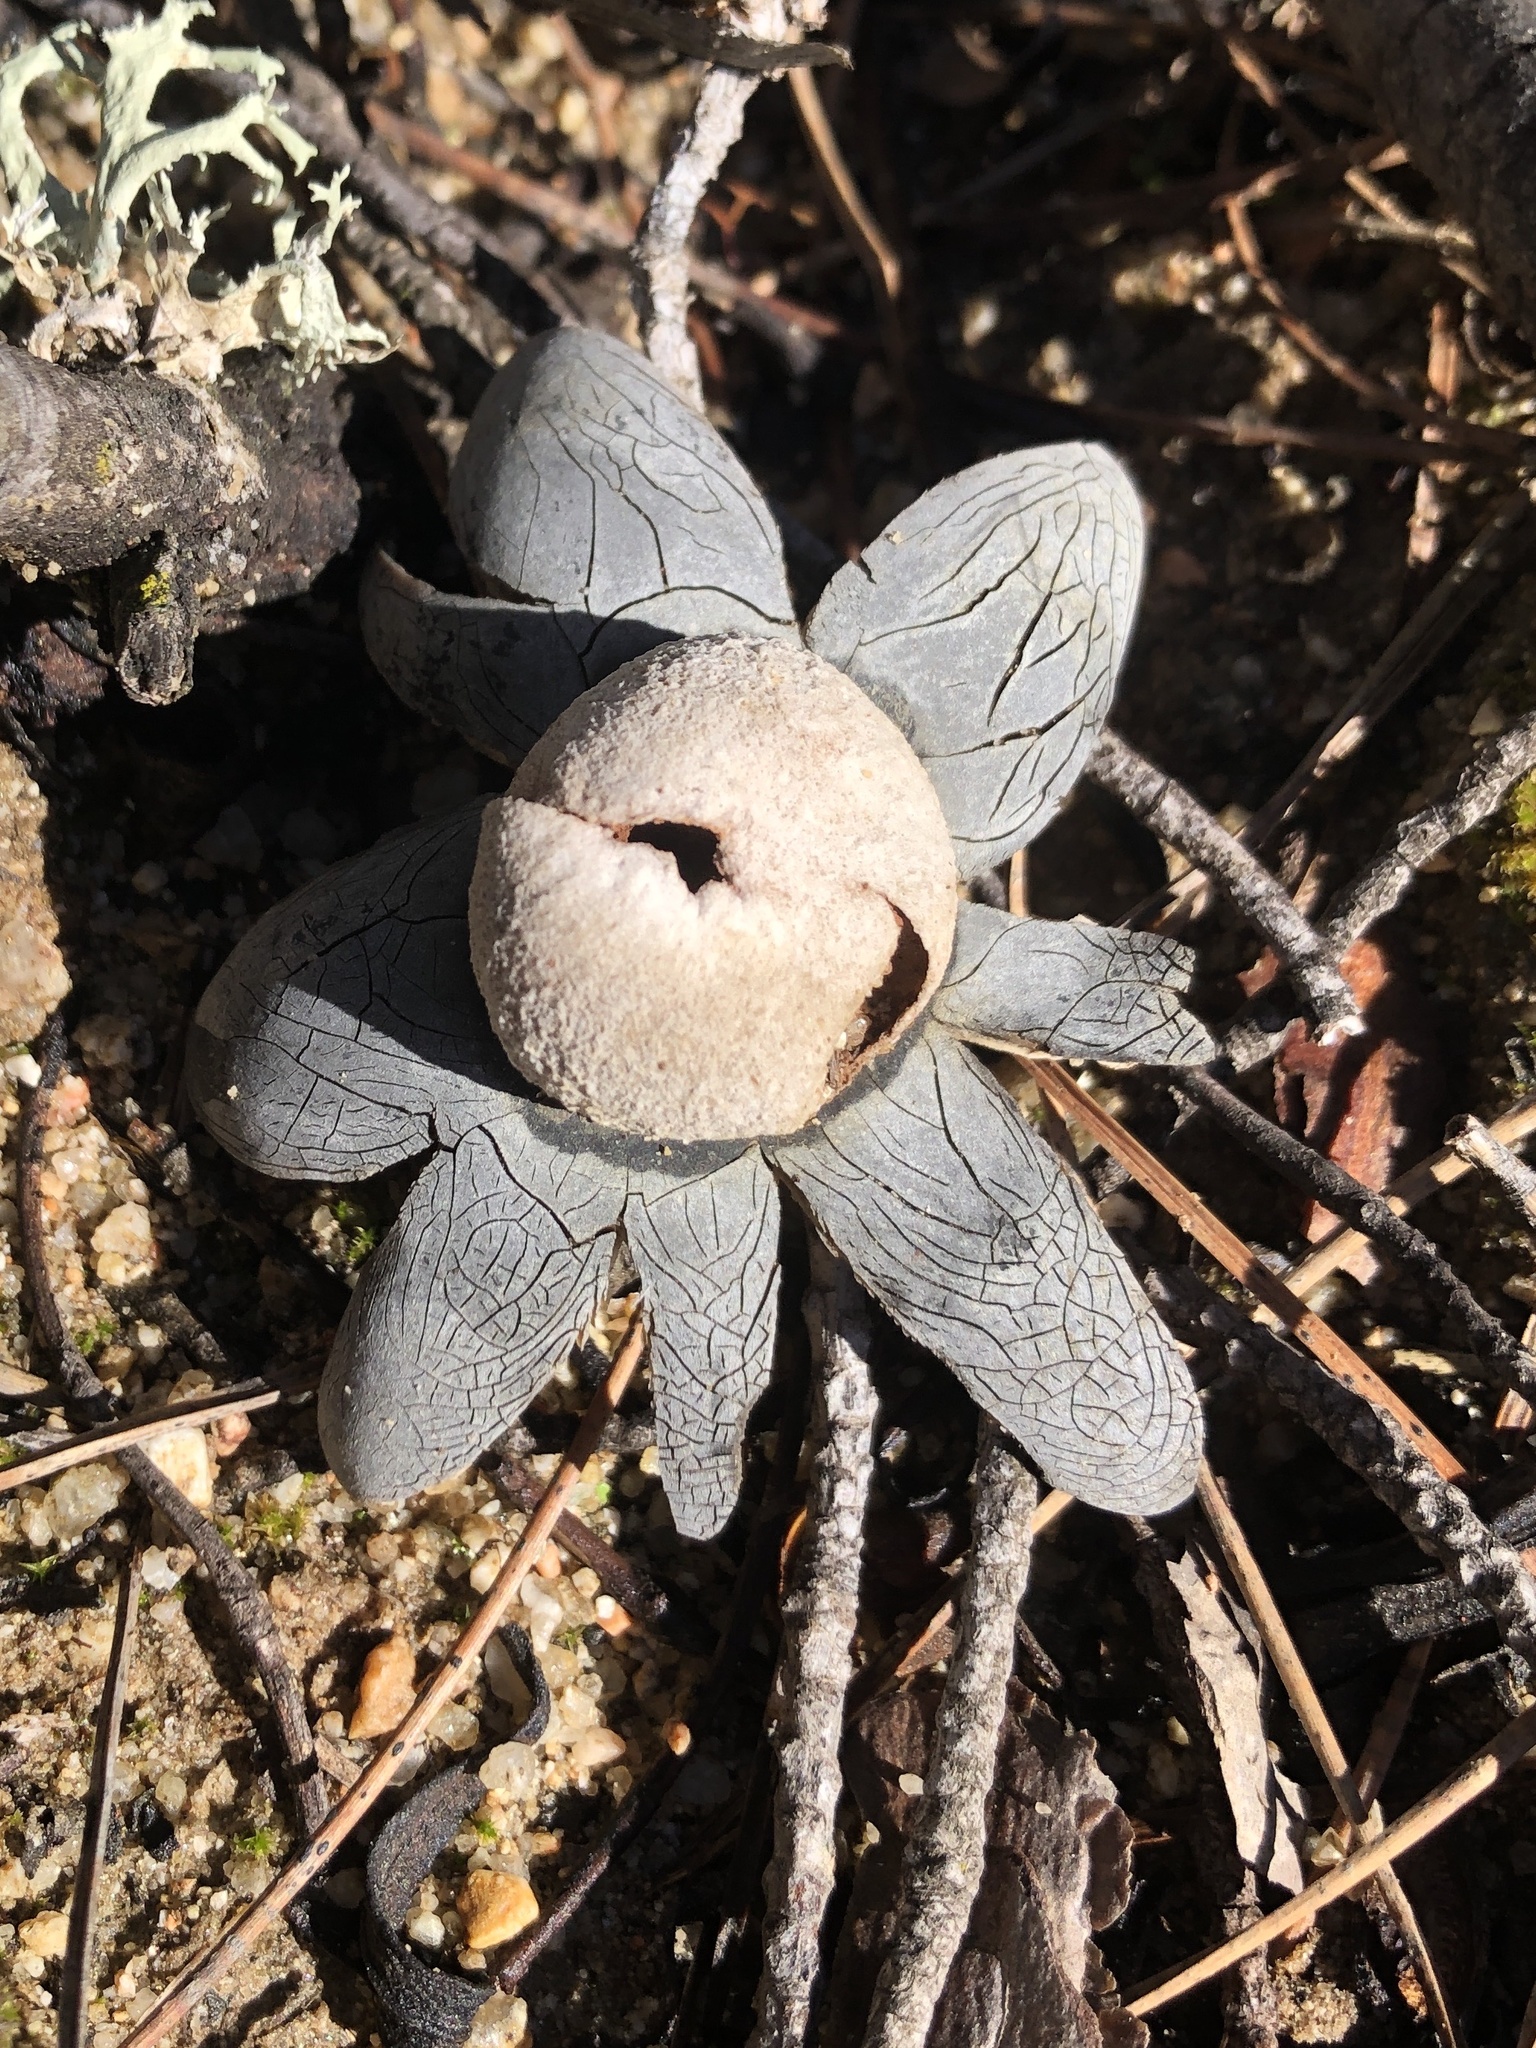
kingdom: Fungi
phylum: Basidiomycota
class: Agaricomycetes
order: Boletales
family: Diplocystidiaceae
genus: Astraeus
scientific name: Astraeus hygrometricus
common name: Barometer earthstar
